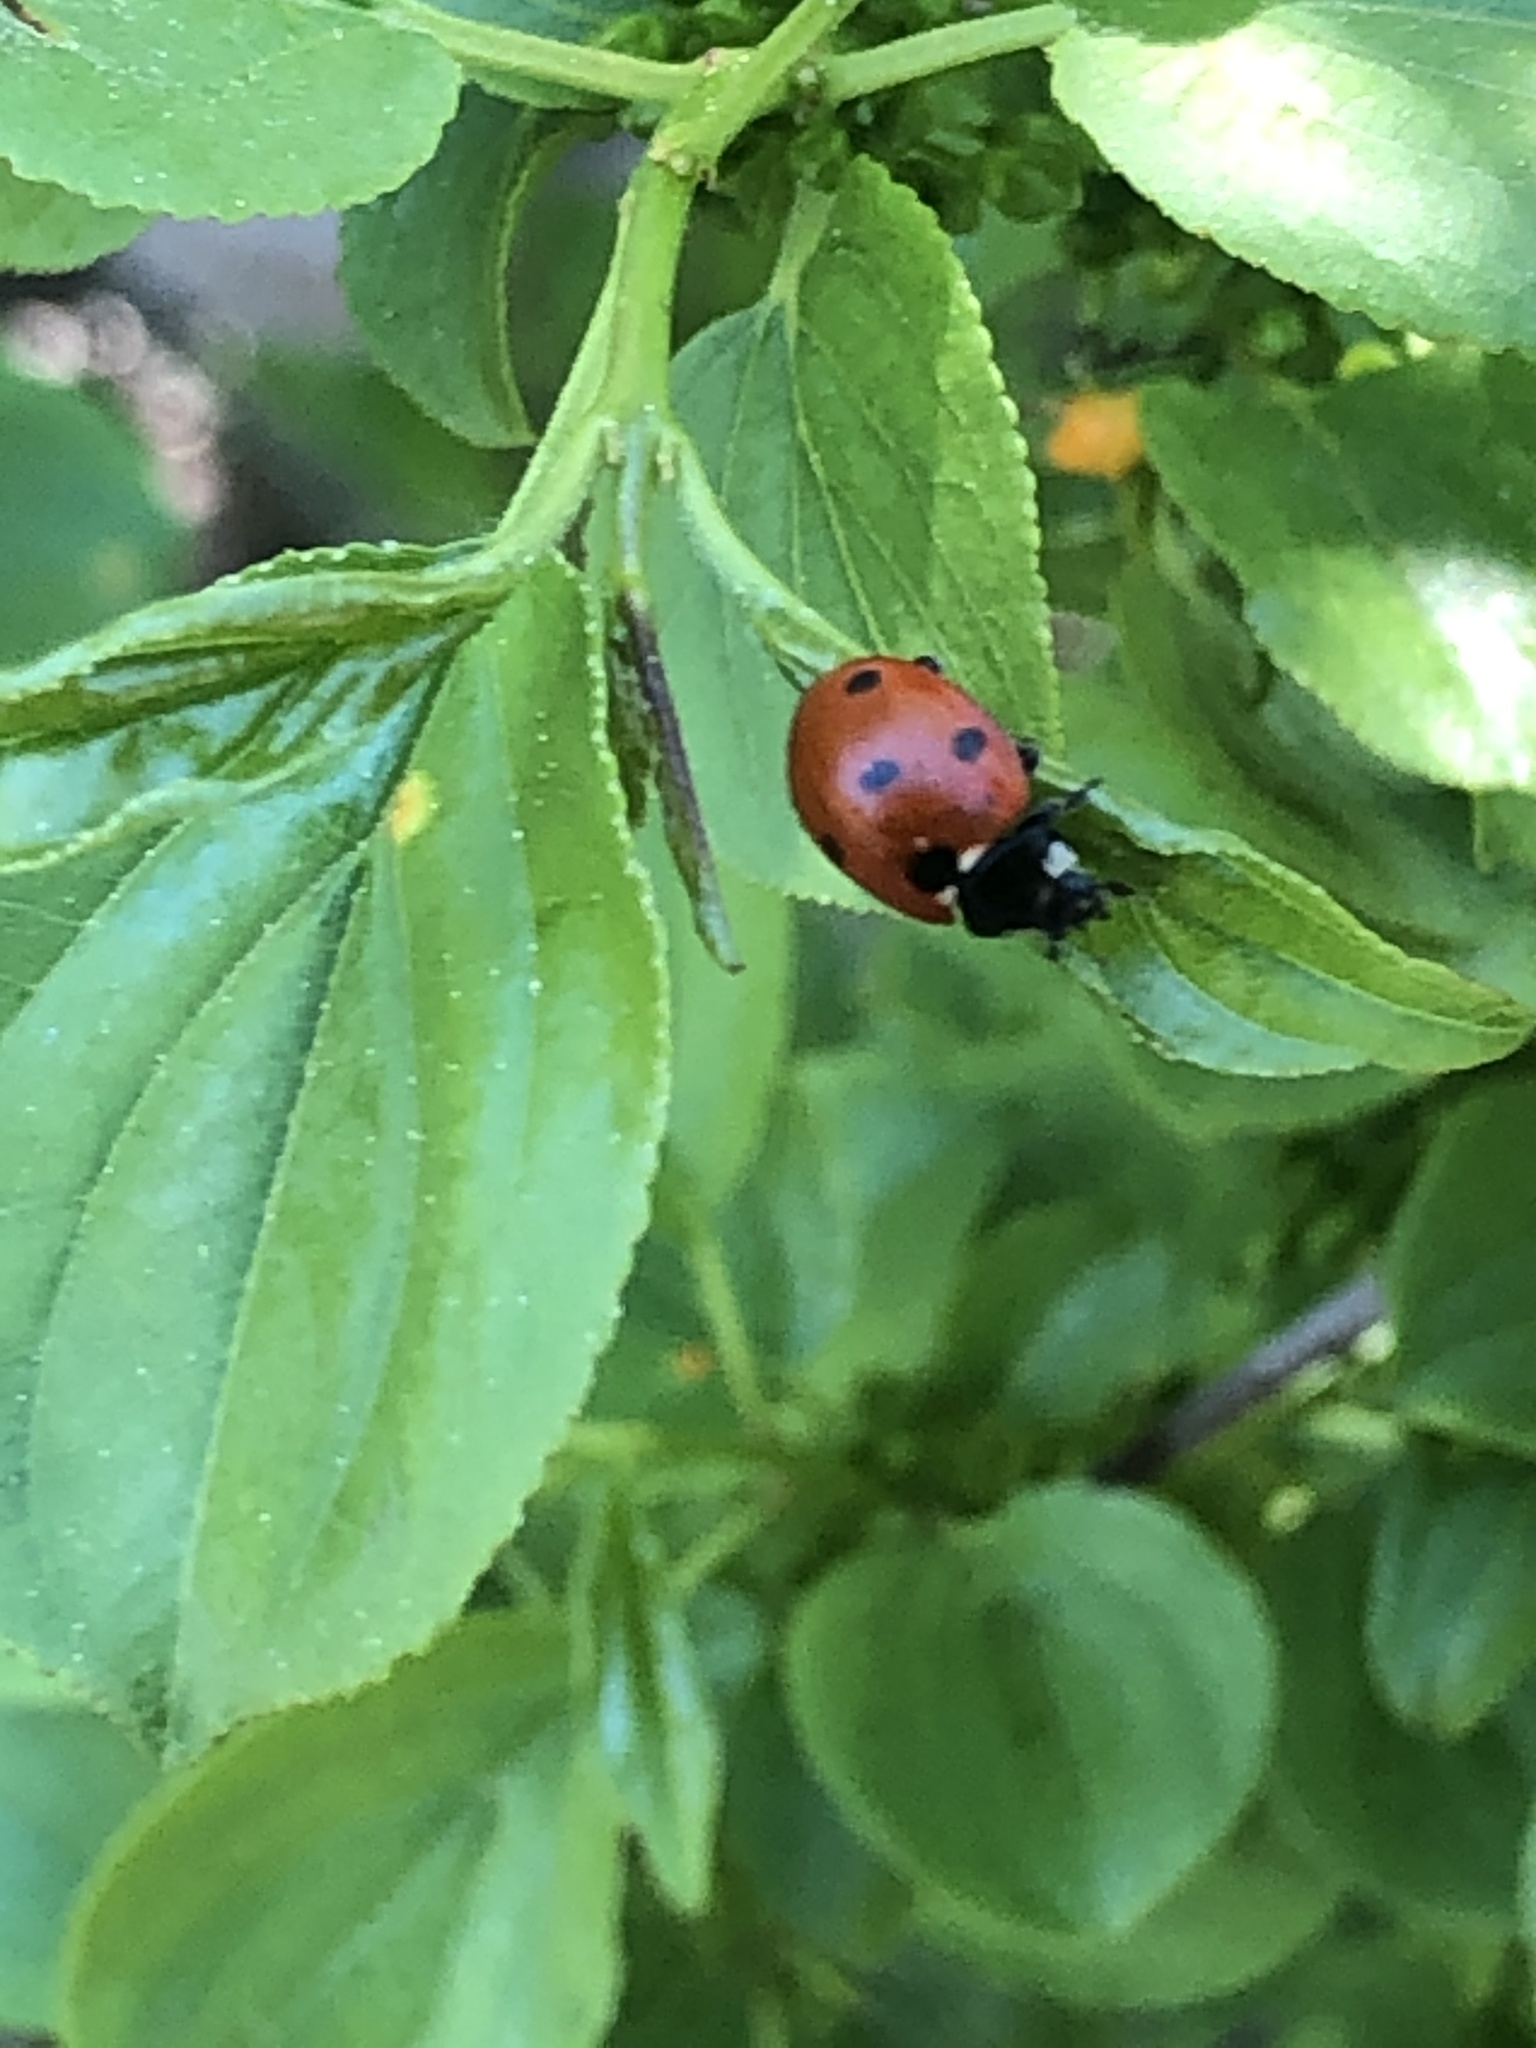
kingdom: Animalia
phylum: Arthropoda
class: Insecta
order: Coleoptera
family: Coccinellidae
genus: Coccinella
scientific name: Coccinella septempunctata
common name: Sevenspotted lady beetle
